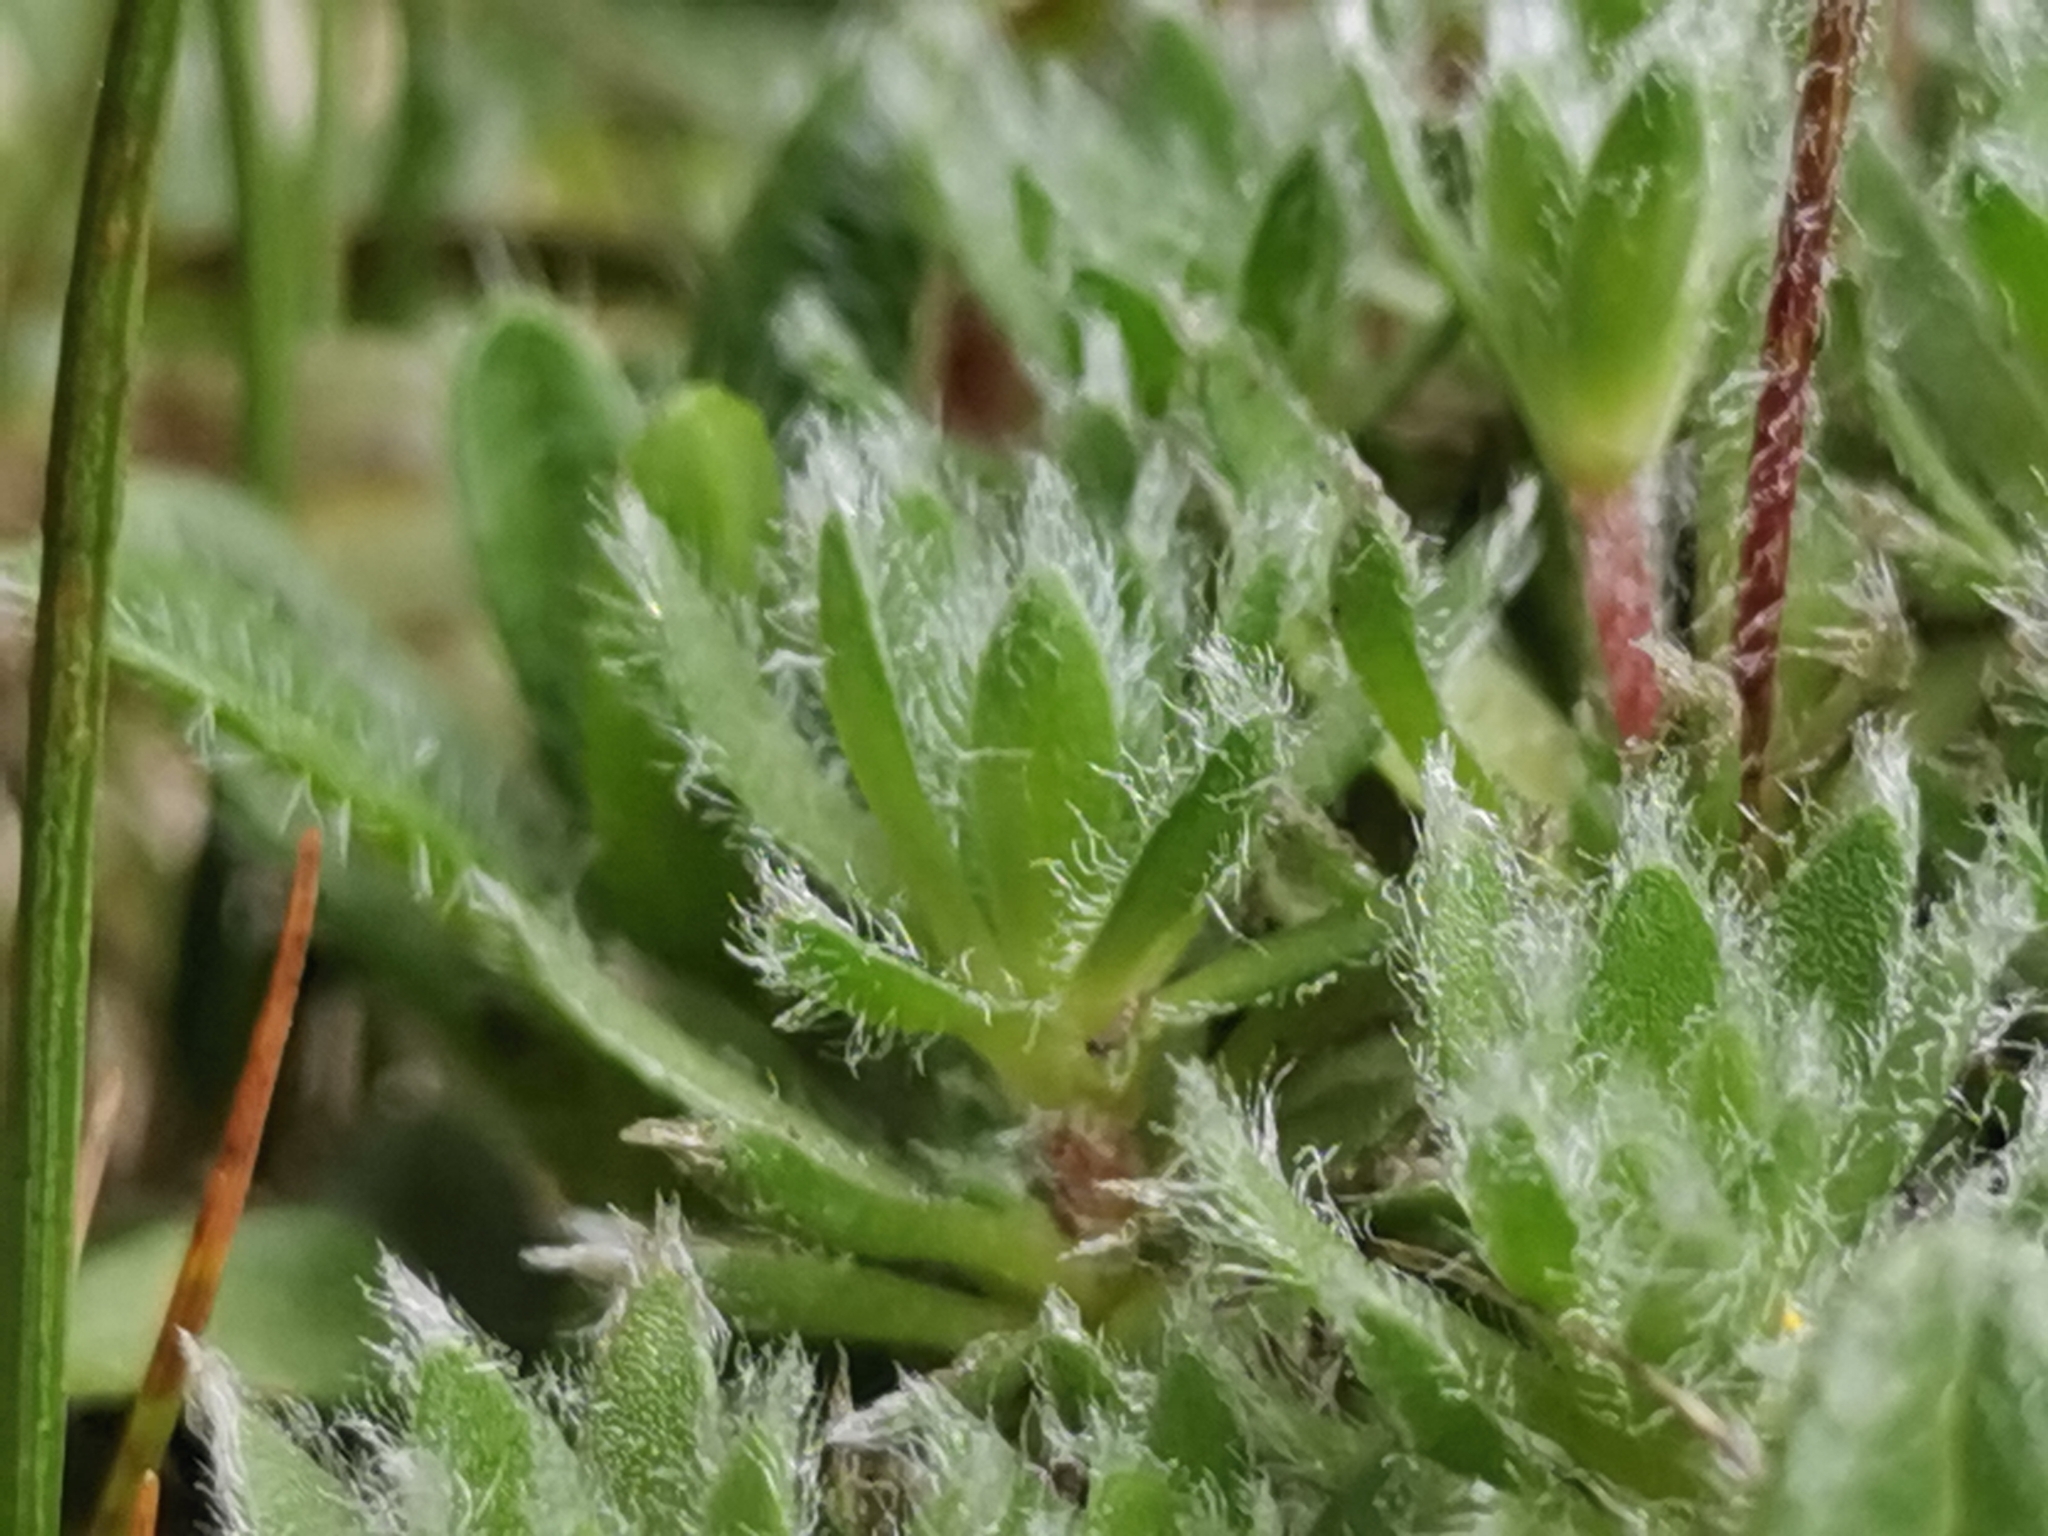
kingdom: Plantae
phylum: Tracheophyta
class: Magnoliopsida
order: Ericales
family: Primulaceae
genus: Androsace
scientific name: Androsace villosa
